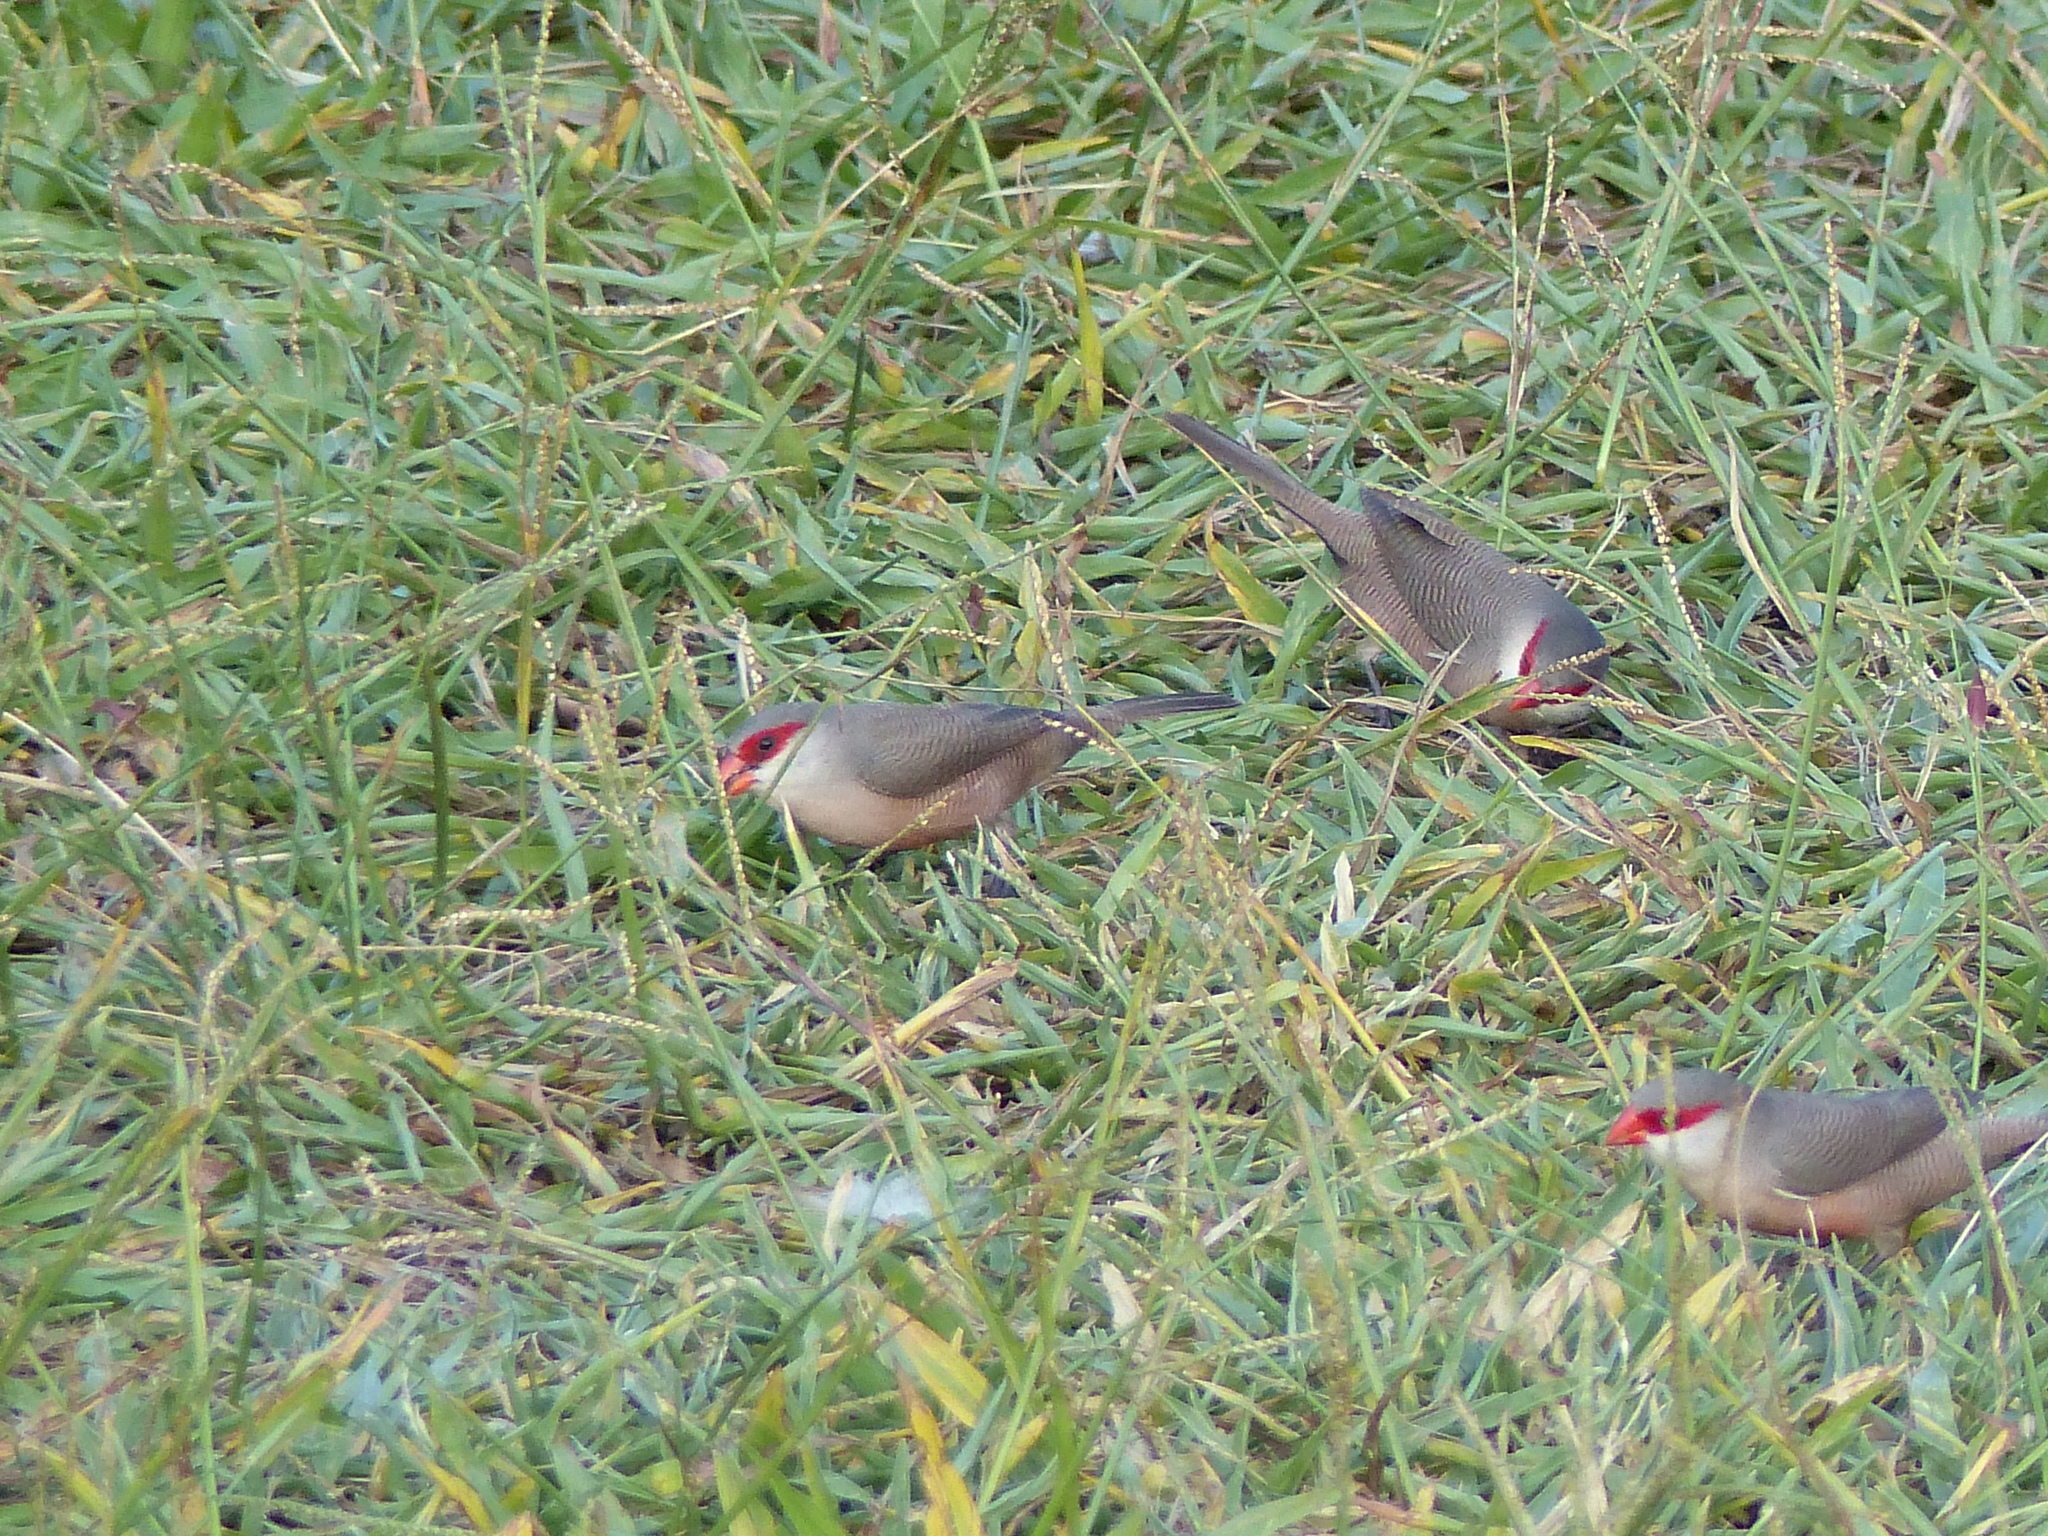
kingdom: Animalia
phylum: Chordata
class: Aves
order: Passeriformes
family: Estrildidae
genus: Estrilda
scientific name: Estrilda astrild
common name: Common waxbill
